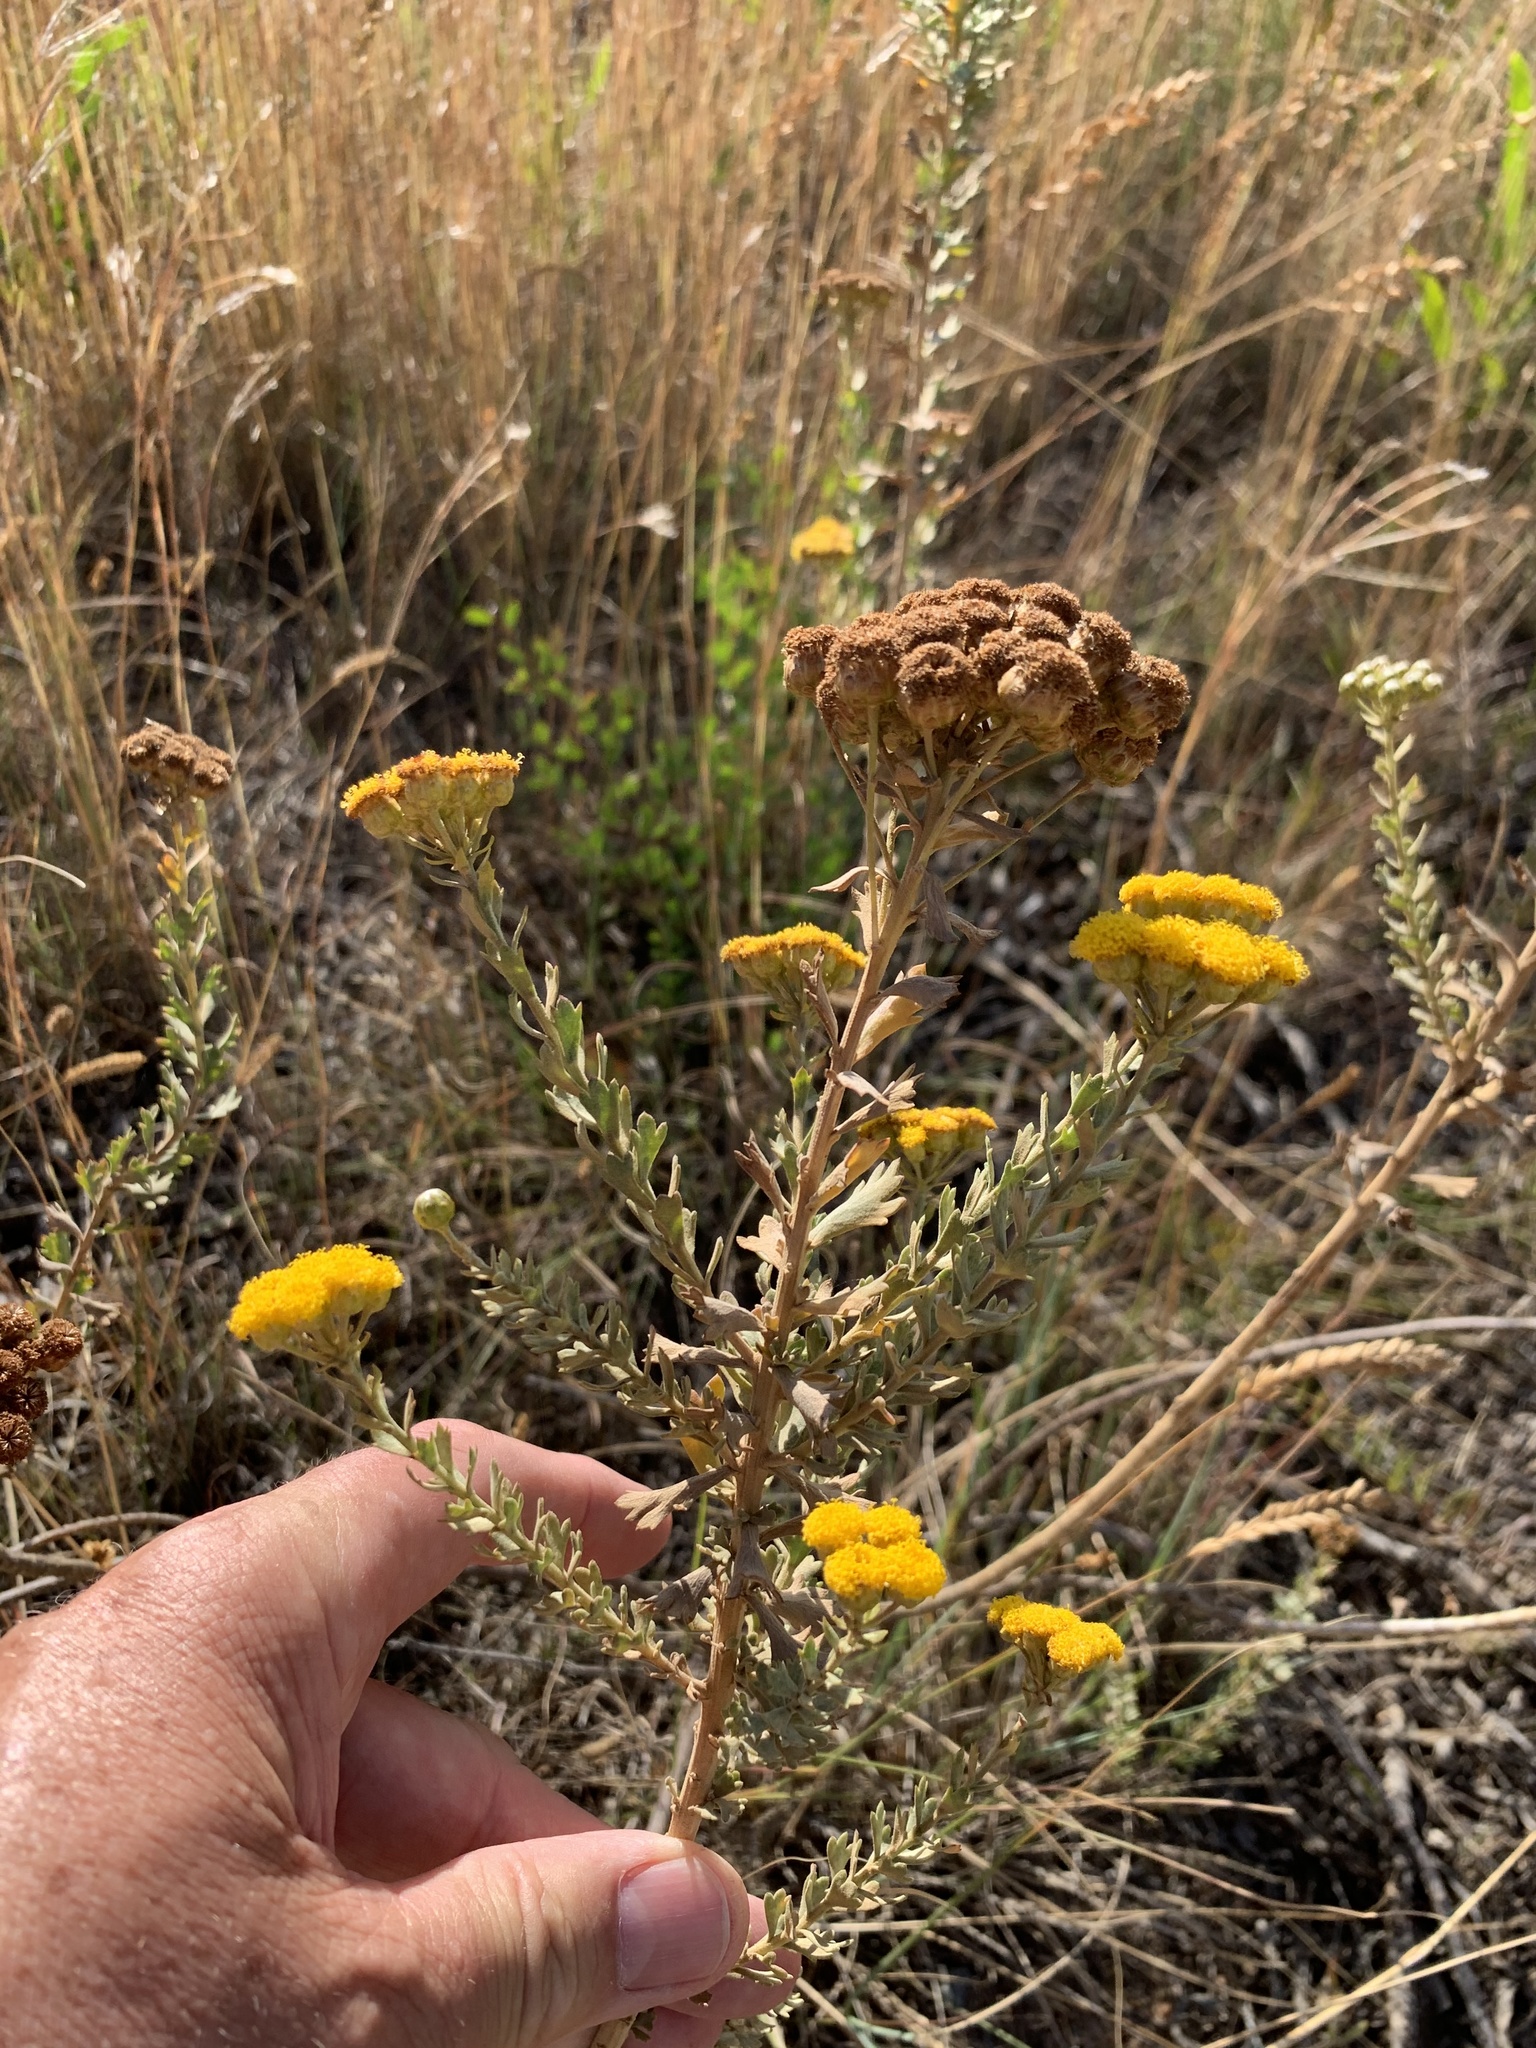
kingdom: Plantae
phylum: Tracheophyta
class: Magnoliopsida
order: Asterales
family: Asteraceae
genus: Athanasia
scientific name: Athanasia trifurcata
